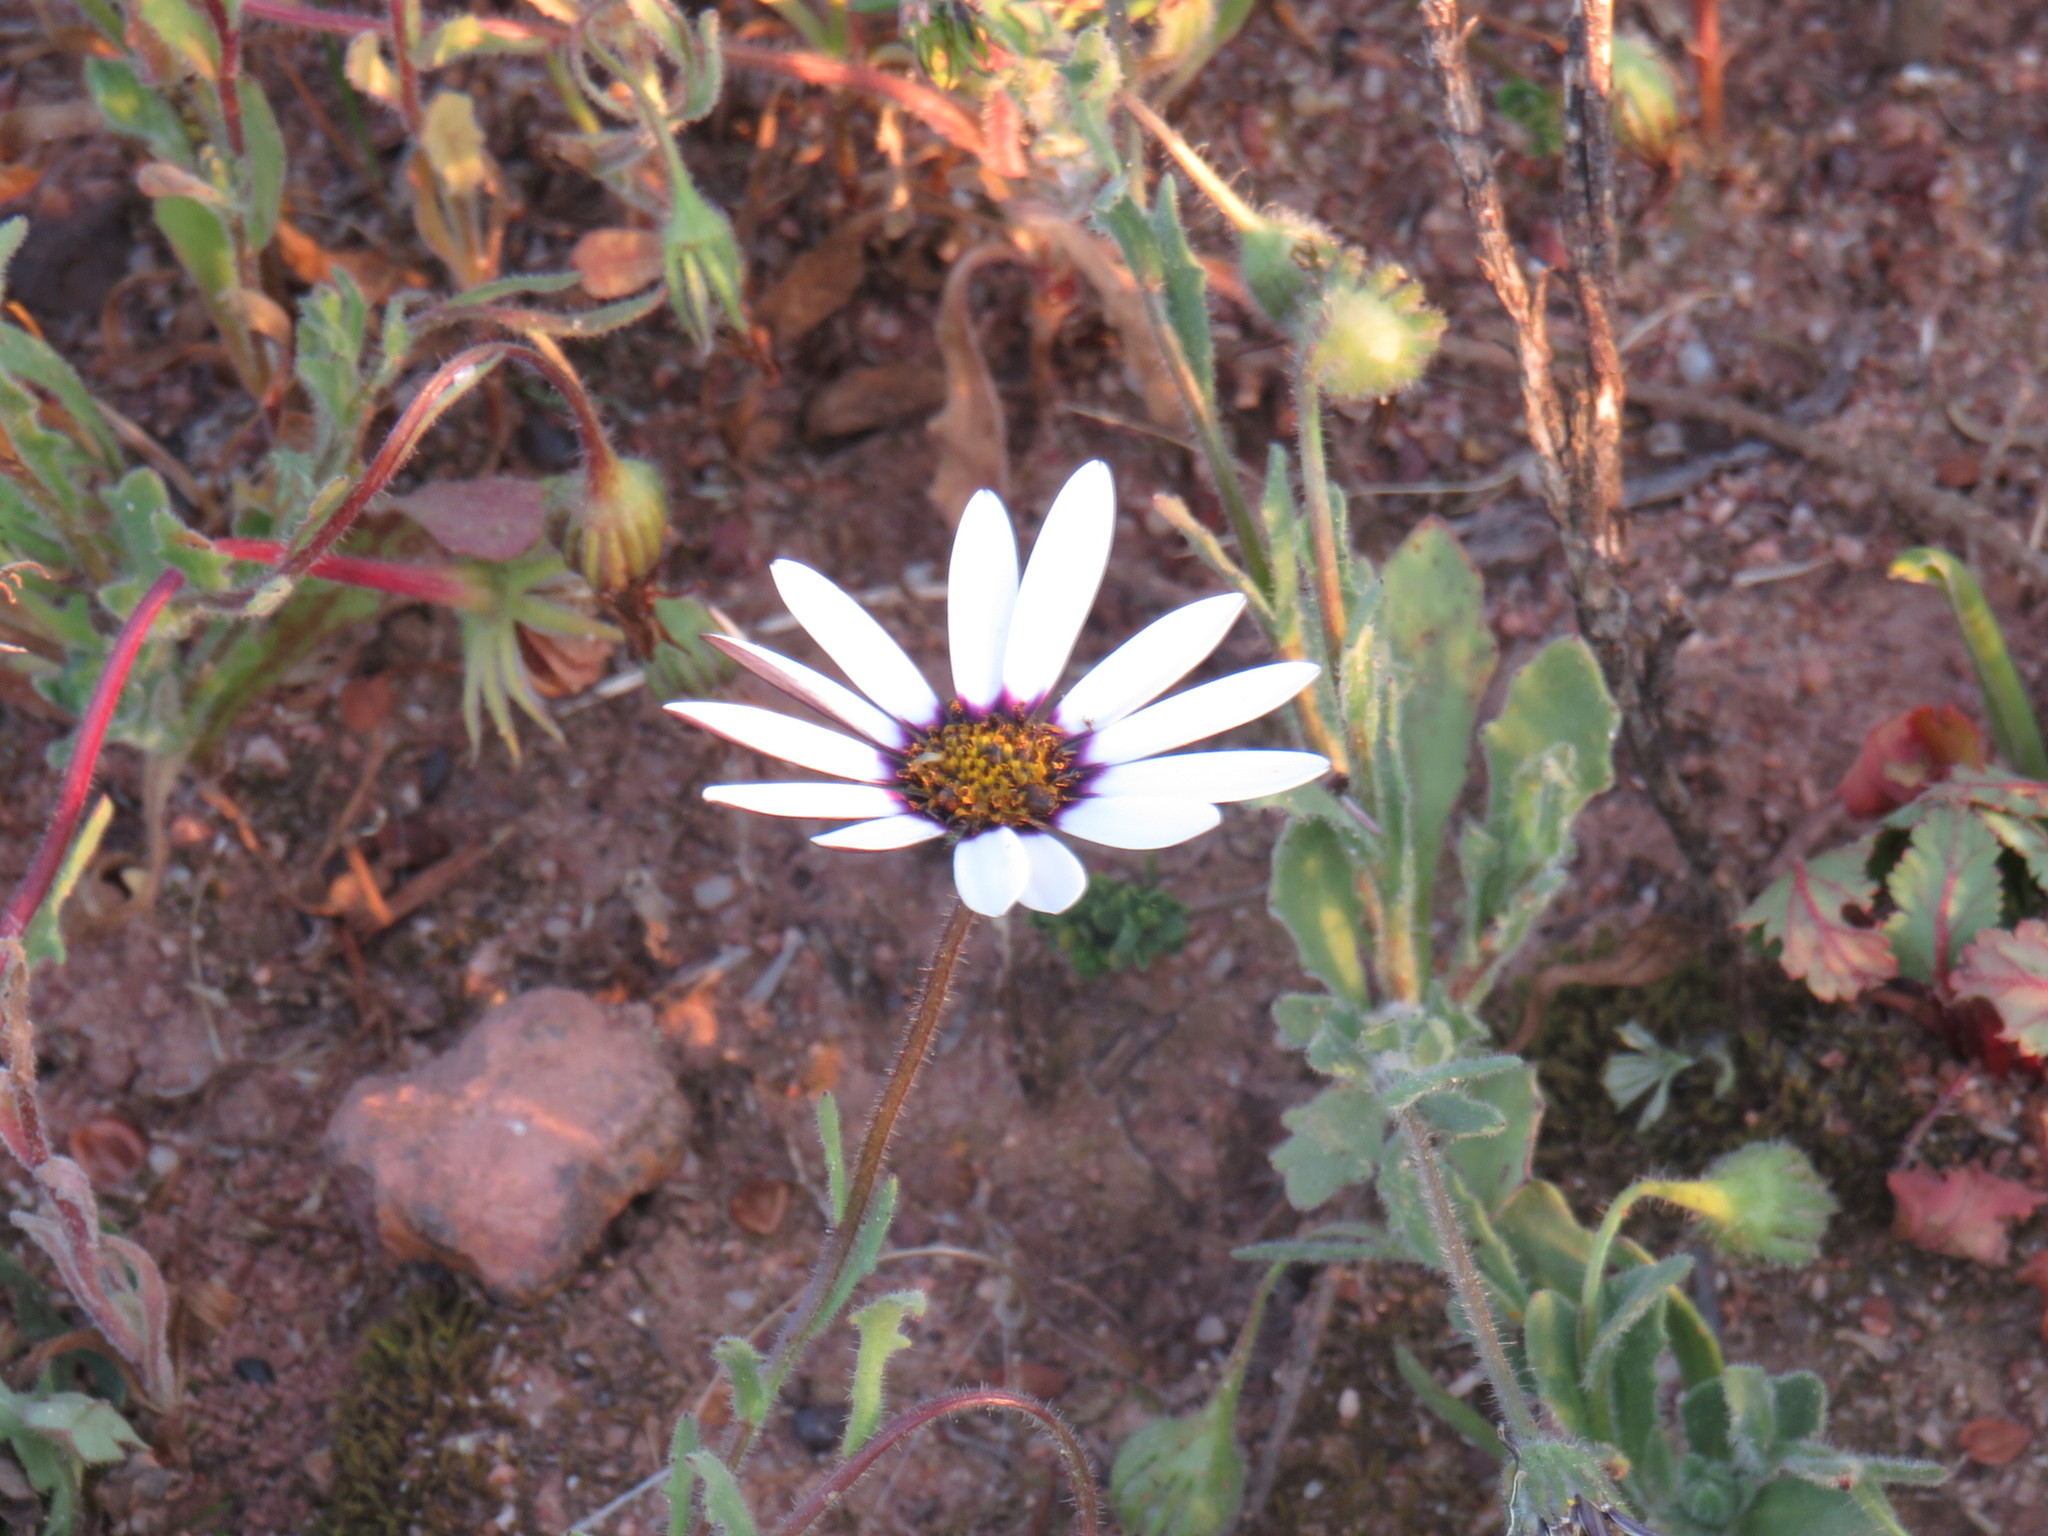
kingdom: Plantae
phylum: Tracheophyta
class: Magnoliopsida
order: Asterales
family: Asteraceae
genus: Dimorphotheca
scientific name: Dimorphotheca pluvialis
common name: Weather prophet
